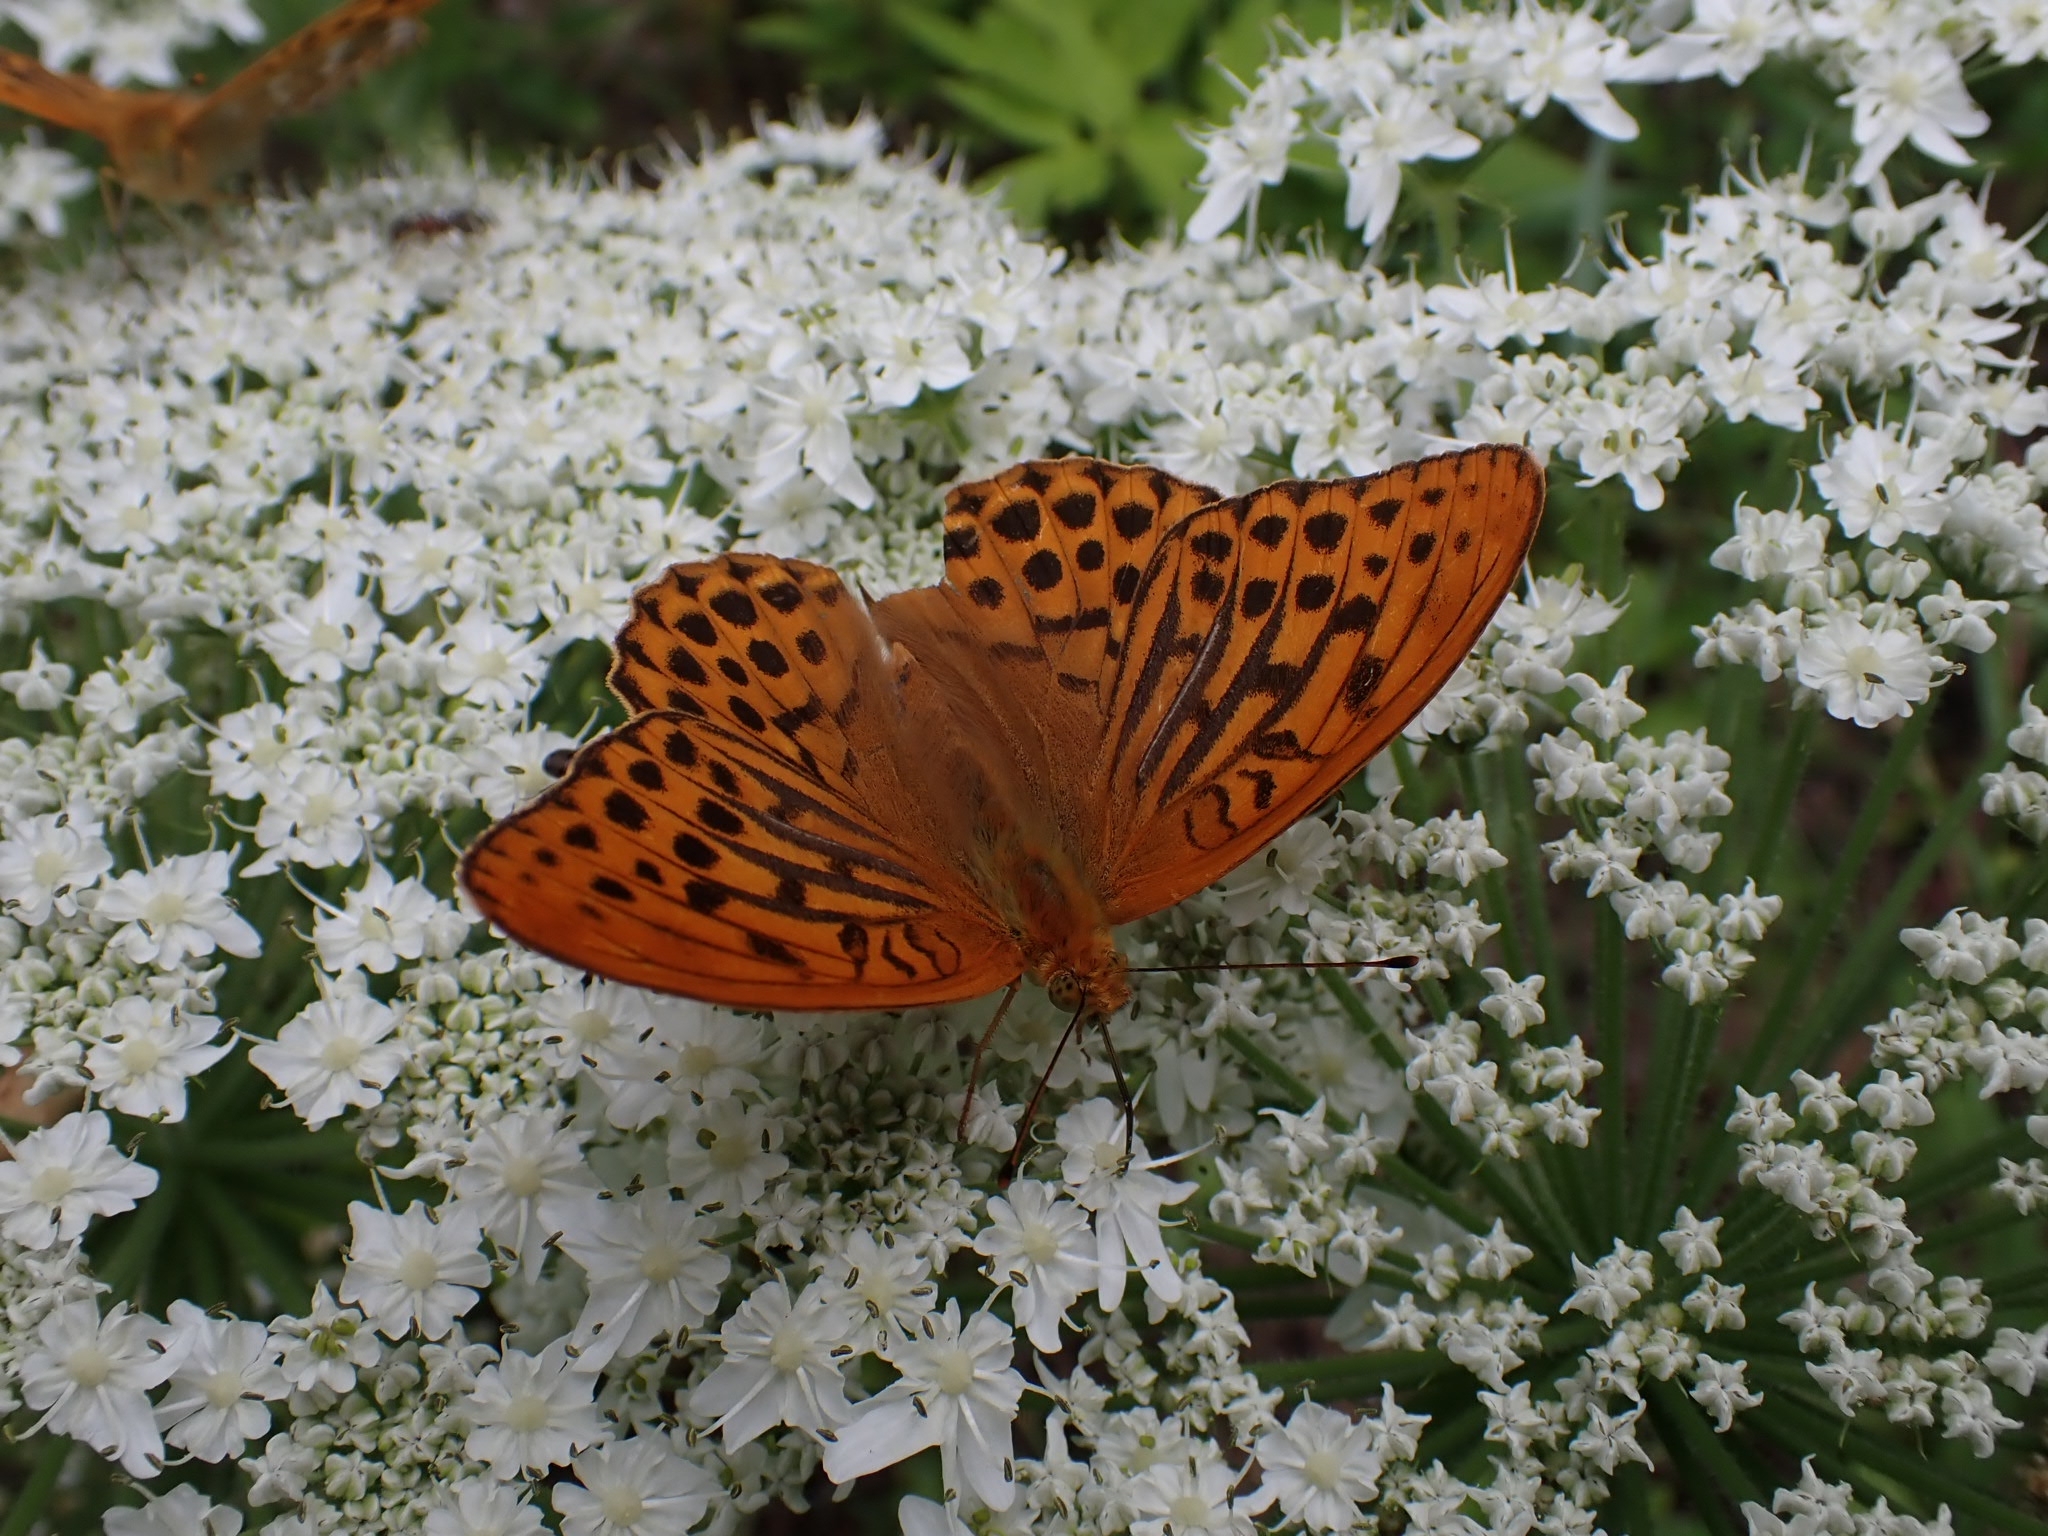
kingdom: Animalia
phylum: Arthropoda
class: Insecta
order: Lepidoptera
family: Nymphalidae
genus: Argynnis
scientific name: Argynnis paphia
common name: Silver-washed fritillary
